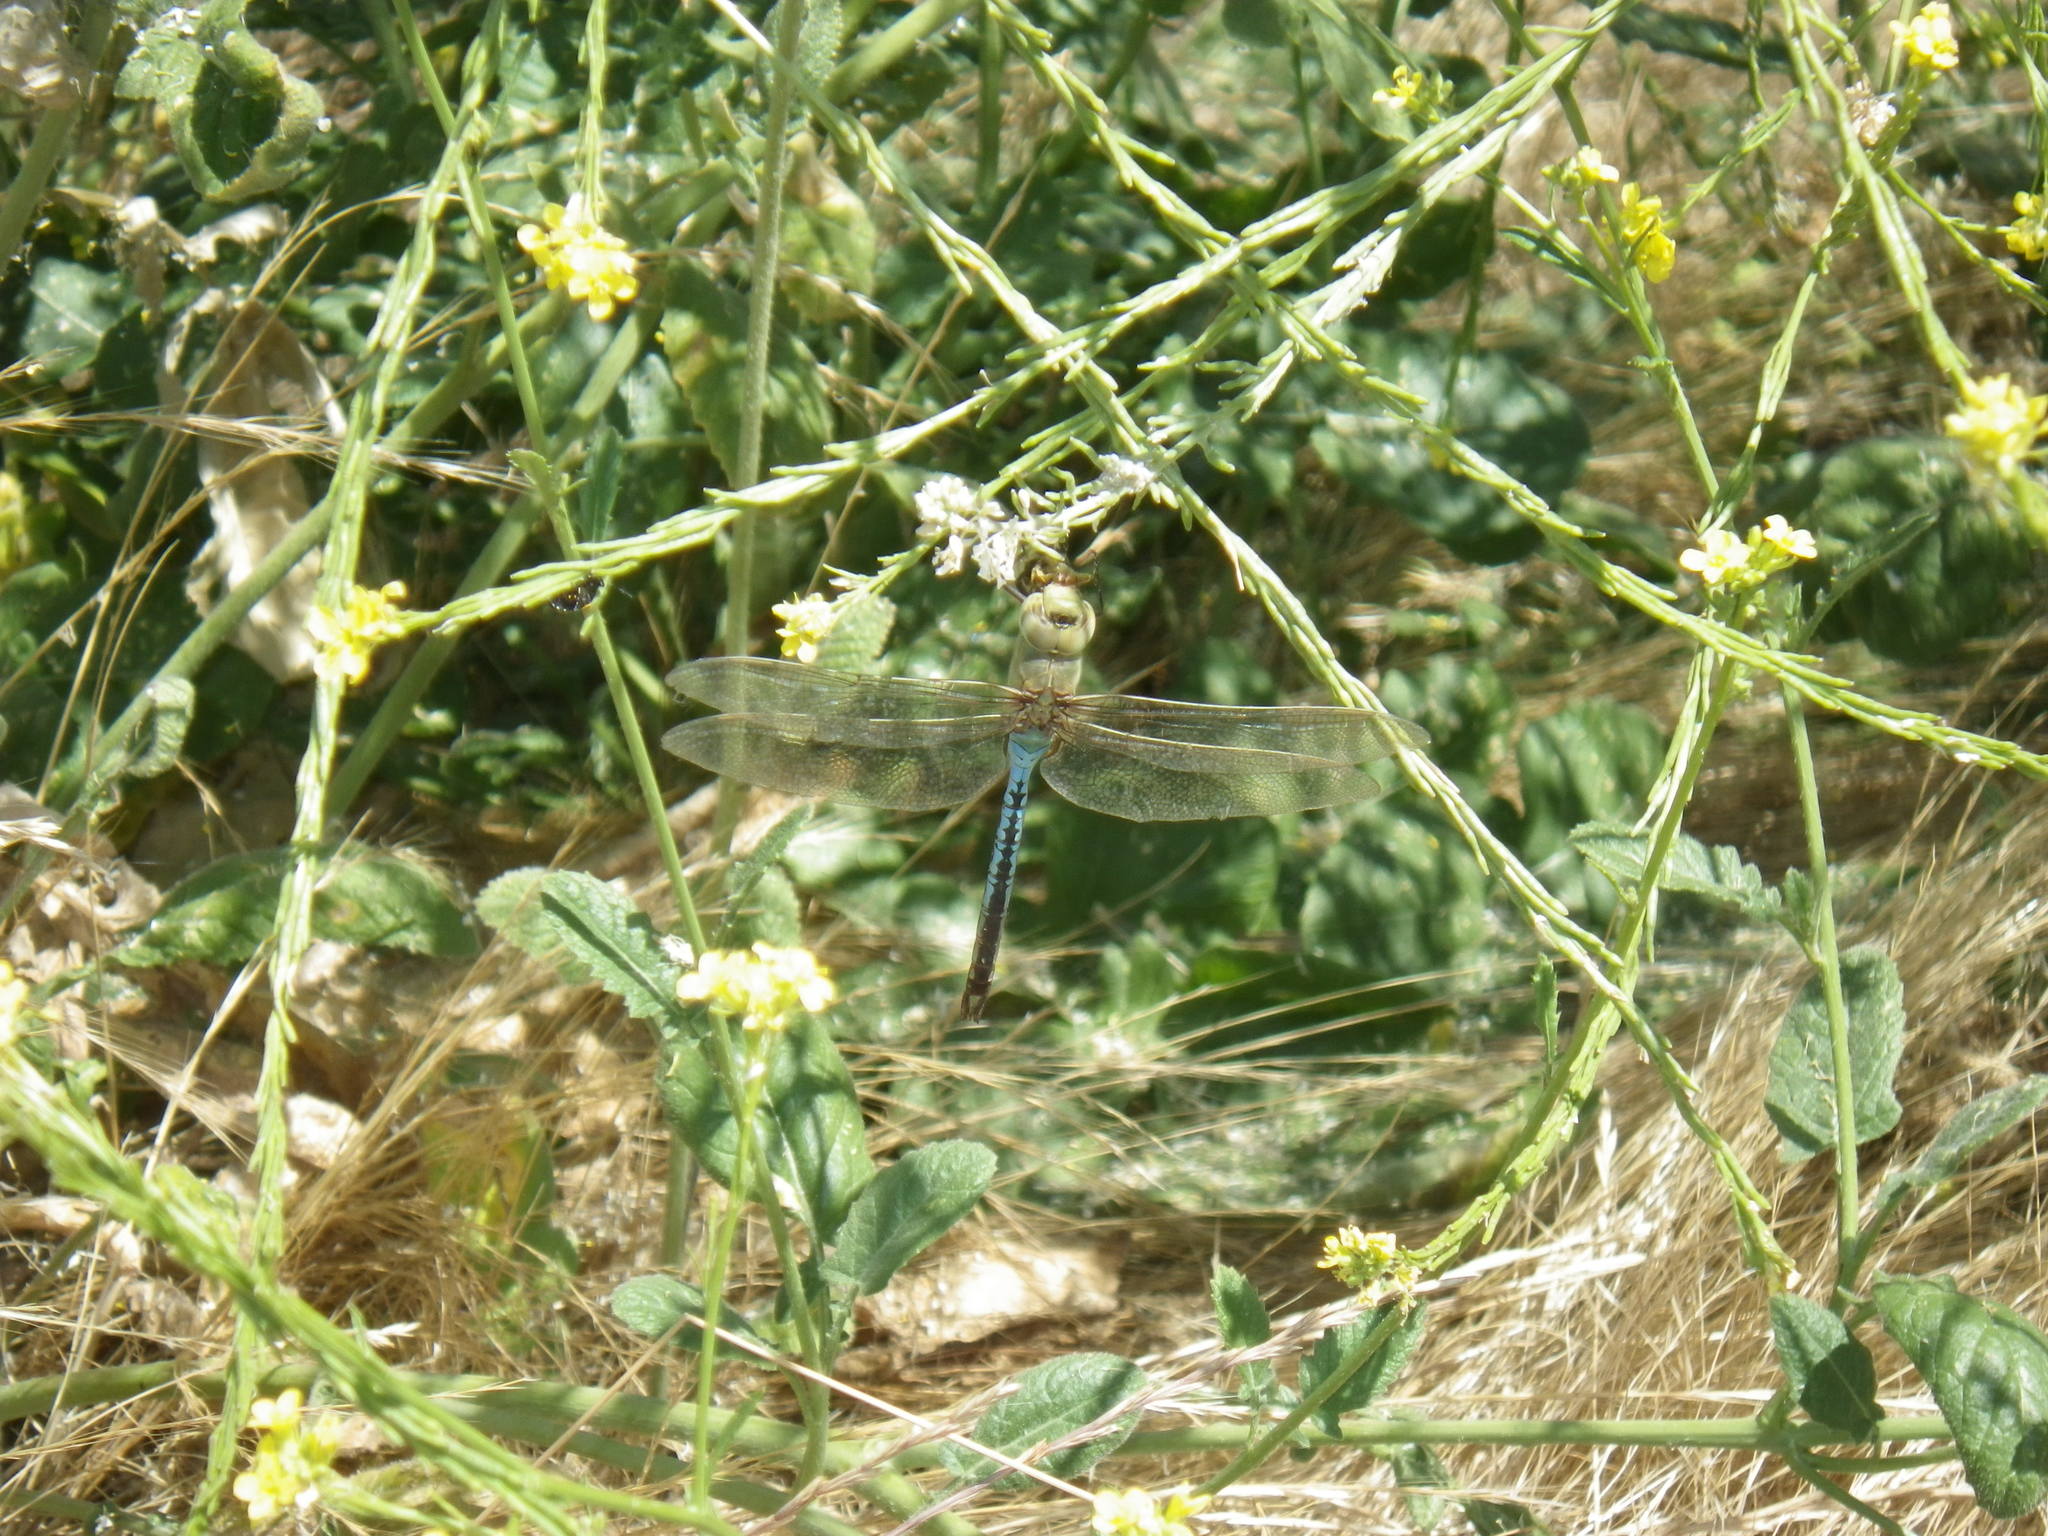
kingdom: Animalia
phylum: Arthropoda
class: Insecta
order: Odonata
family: Aeshnidae
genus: Anax
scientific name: Anax junius
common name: Common green darner
